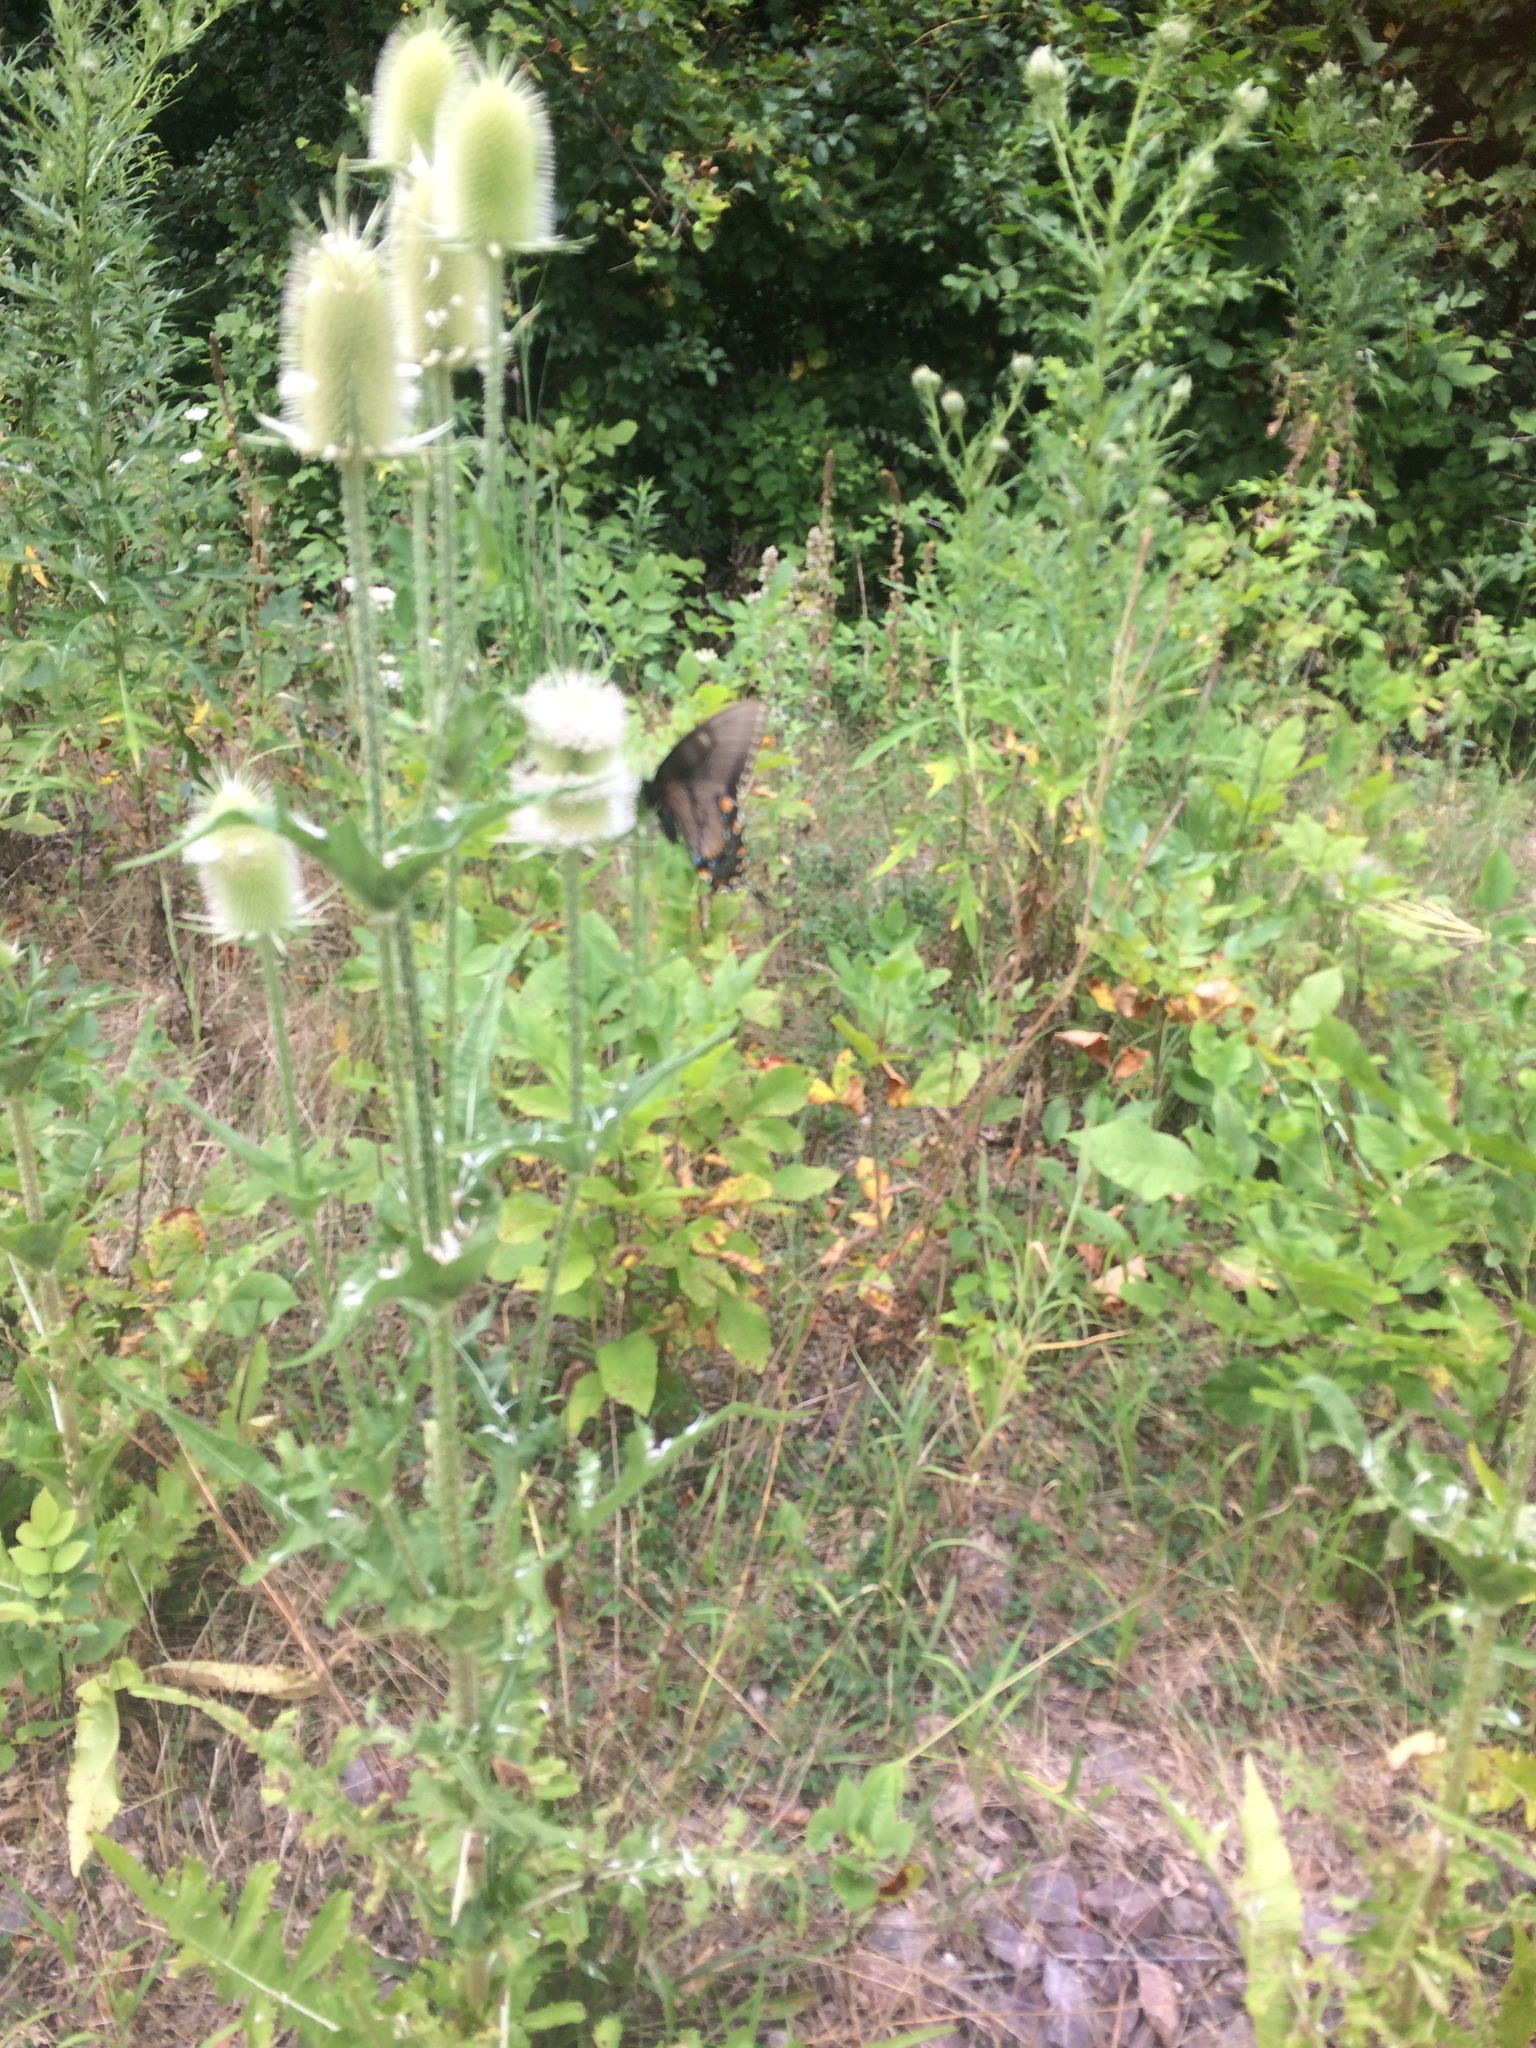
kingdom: Animalia
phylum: Arthropoda
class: Insecta
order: Lepidoptera
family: Papilionidae
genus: Papilio
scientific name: Papilio glaucus
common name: Tiger swallowtail
